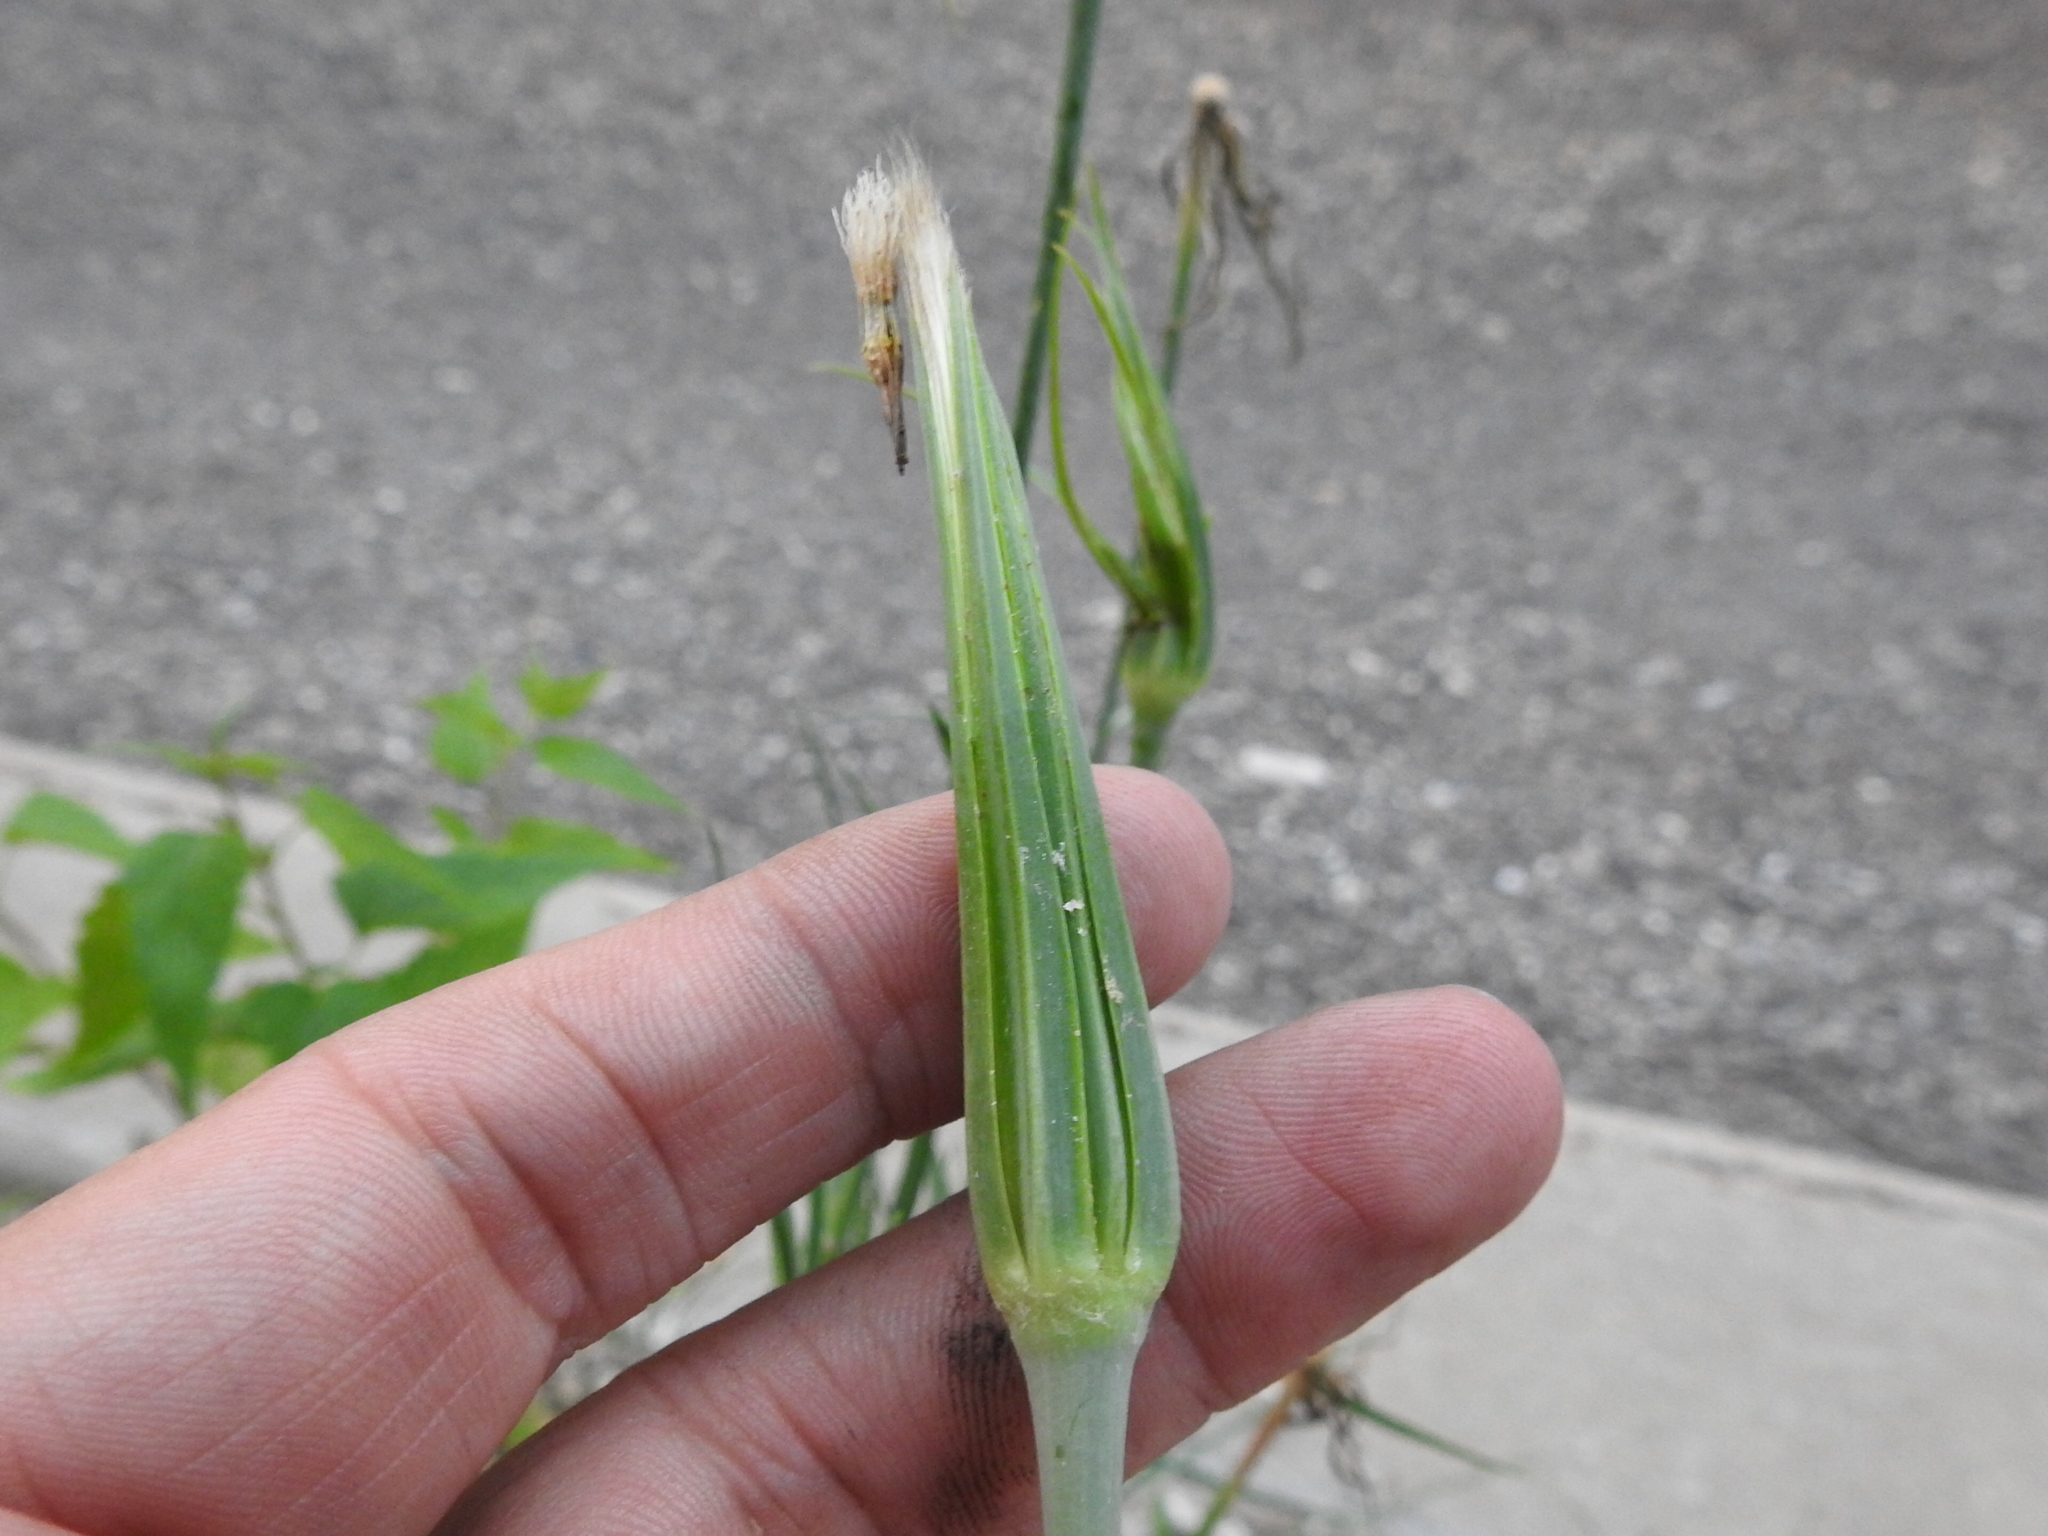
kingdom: Plantae
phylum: Tracheophyta
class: Magnoliopsida
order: Asterales
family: Asteraceae
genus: Tragopogon
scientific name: Tragopogon dubius
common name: Yellow salsify
